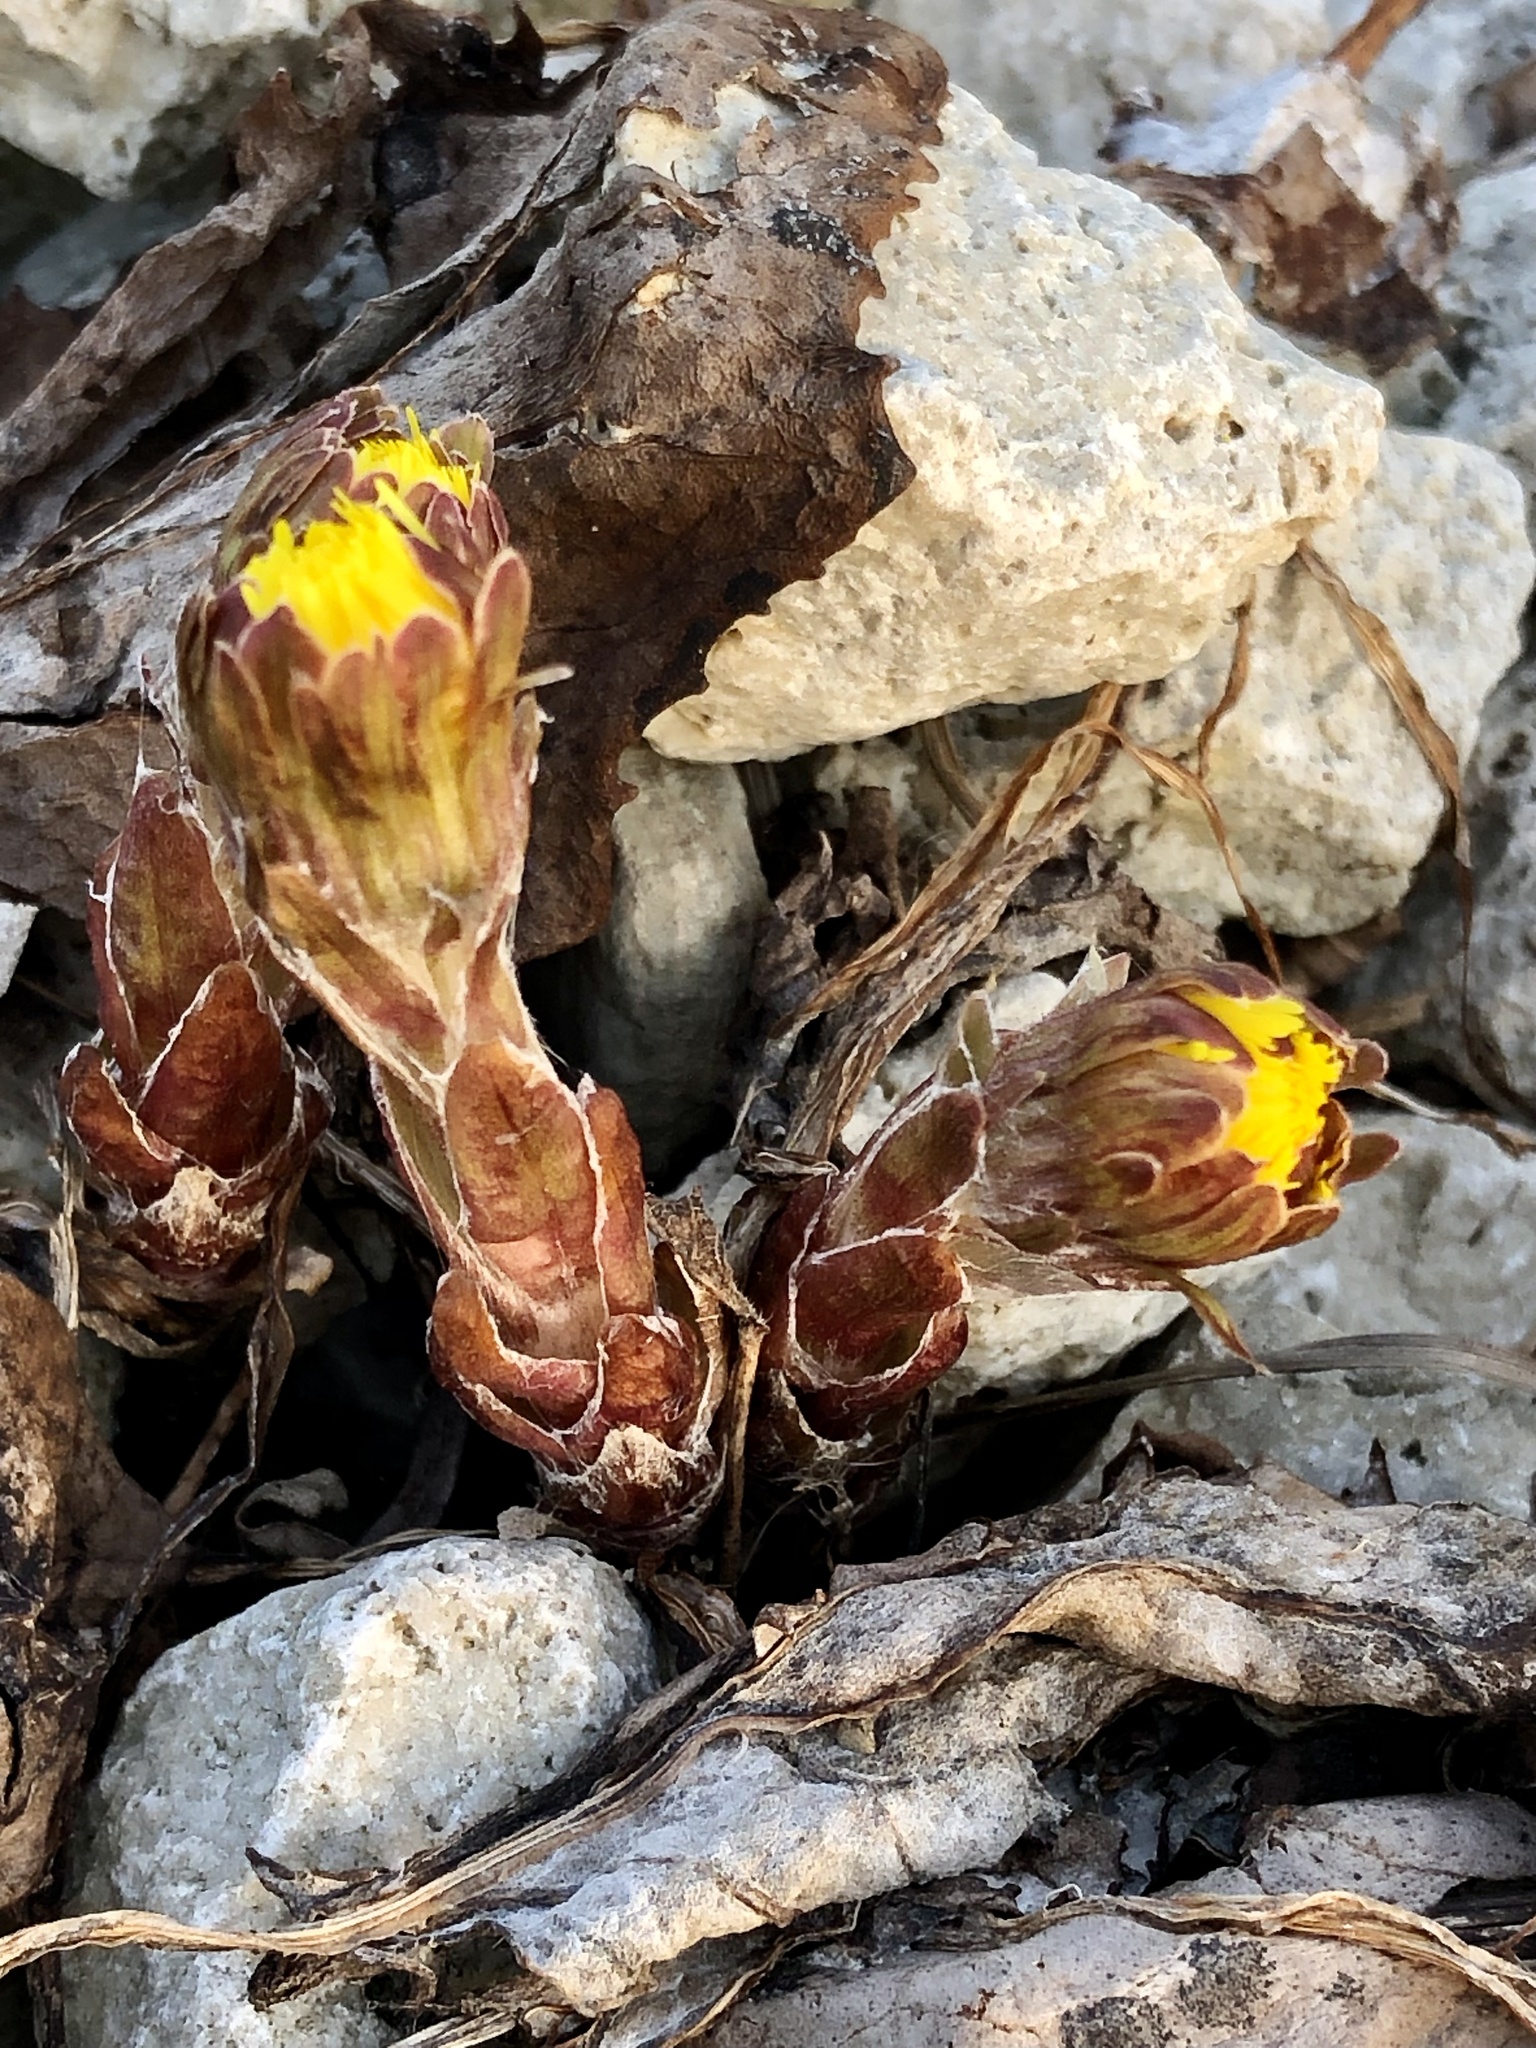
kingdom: Plantae
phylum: Tracheophyta
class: Magnoliopsida
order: Asterales
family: Asteraceae
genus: Tussilago
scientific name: Tussilago farfara
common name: Coltsfoot
